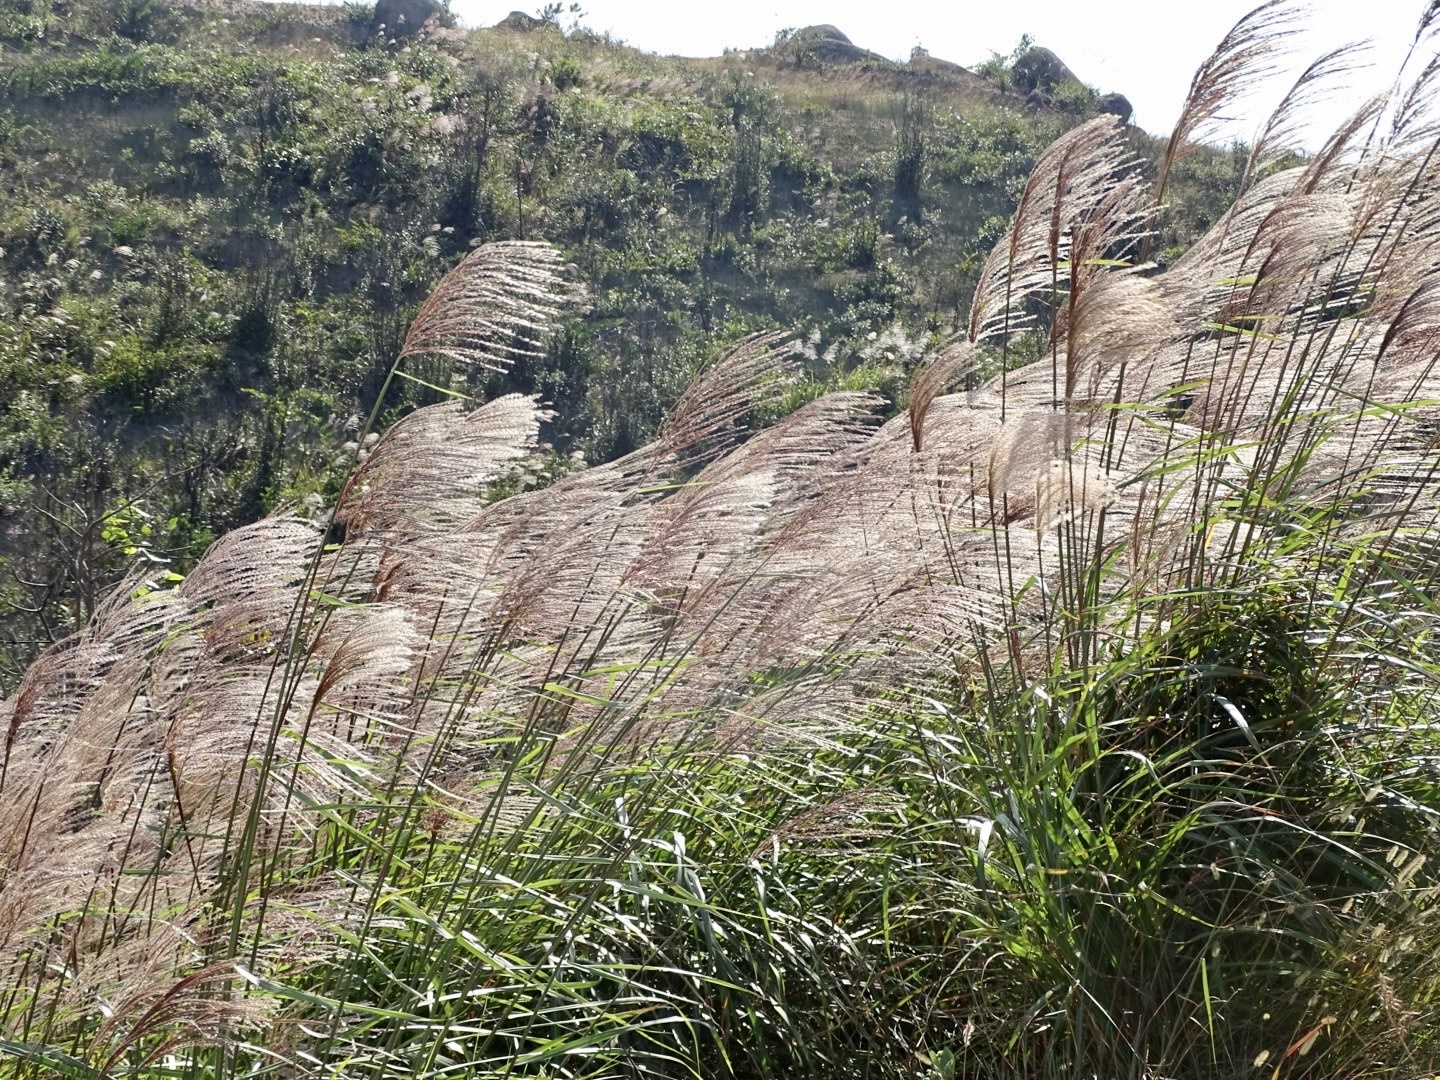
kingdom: Plantae
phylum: Tracheophyta
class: Liliopsida
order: Poales
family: Poaceae
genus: Miscanthus
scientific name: Miscanthus sinensis
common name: Chinese silvergrass
